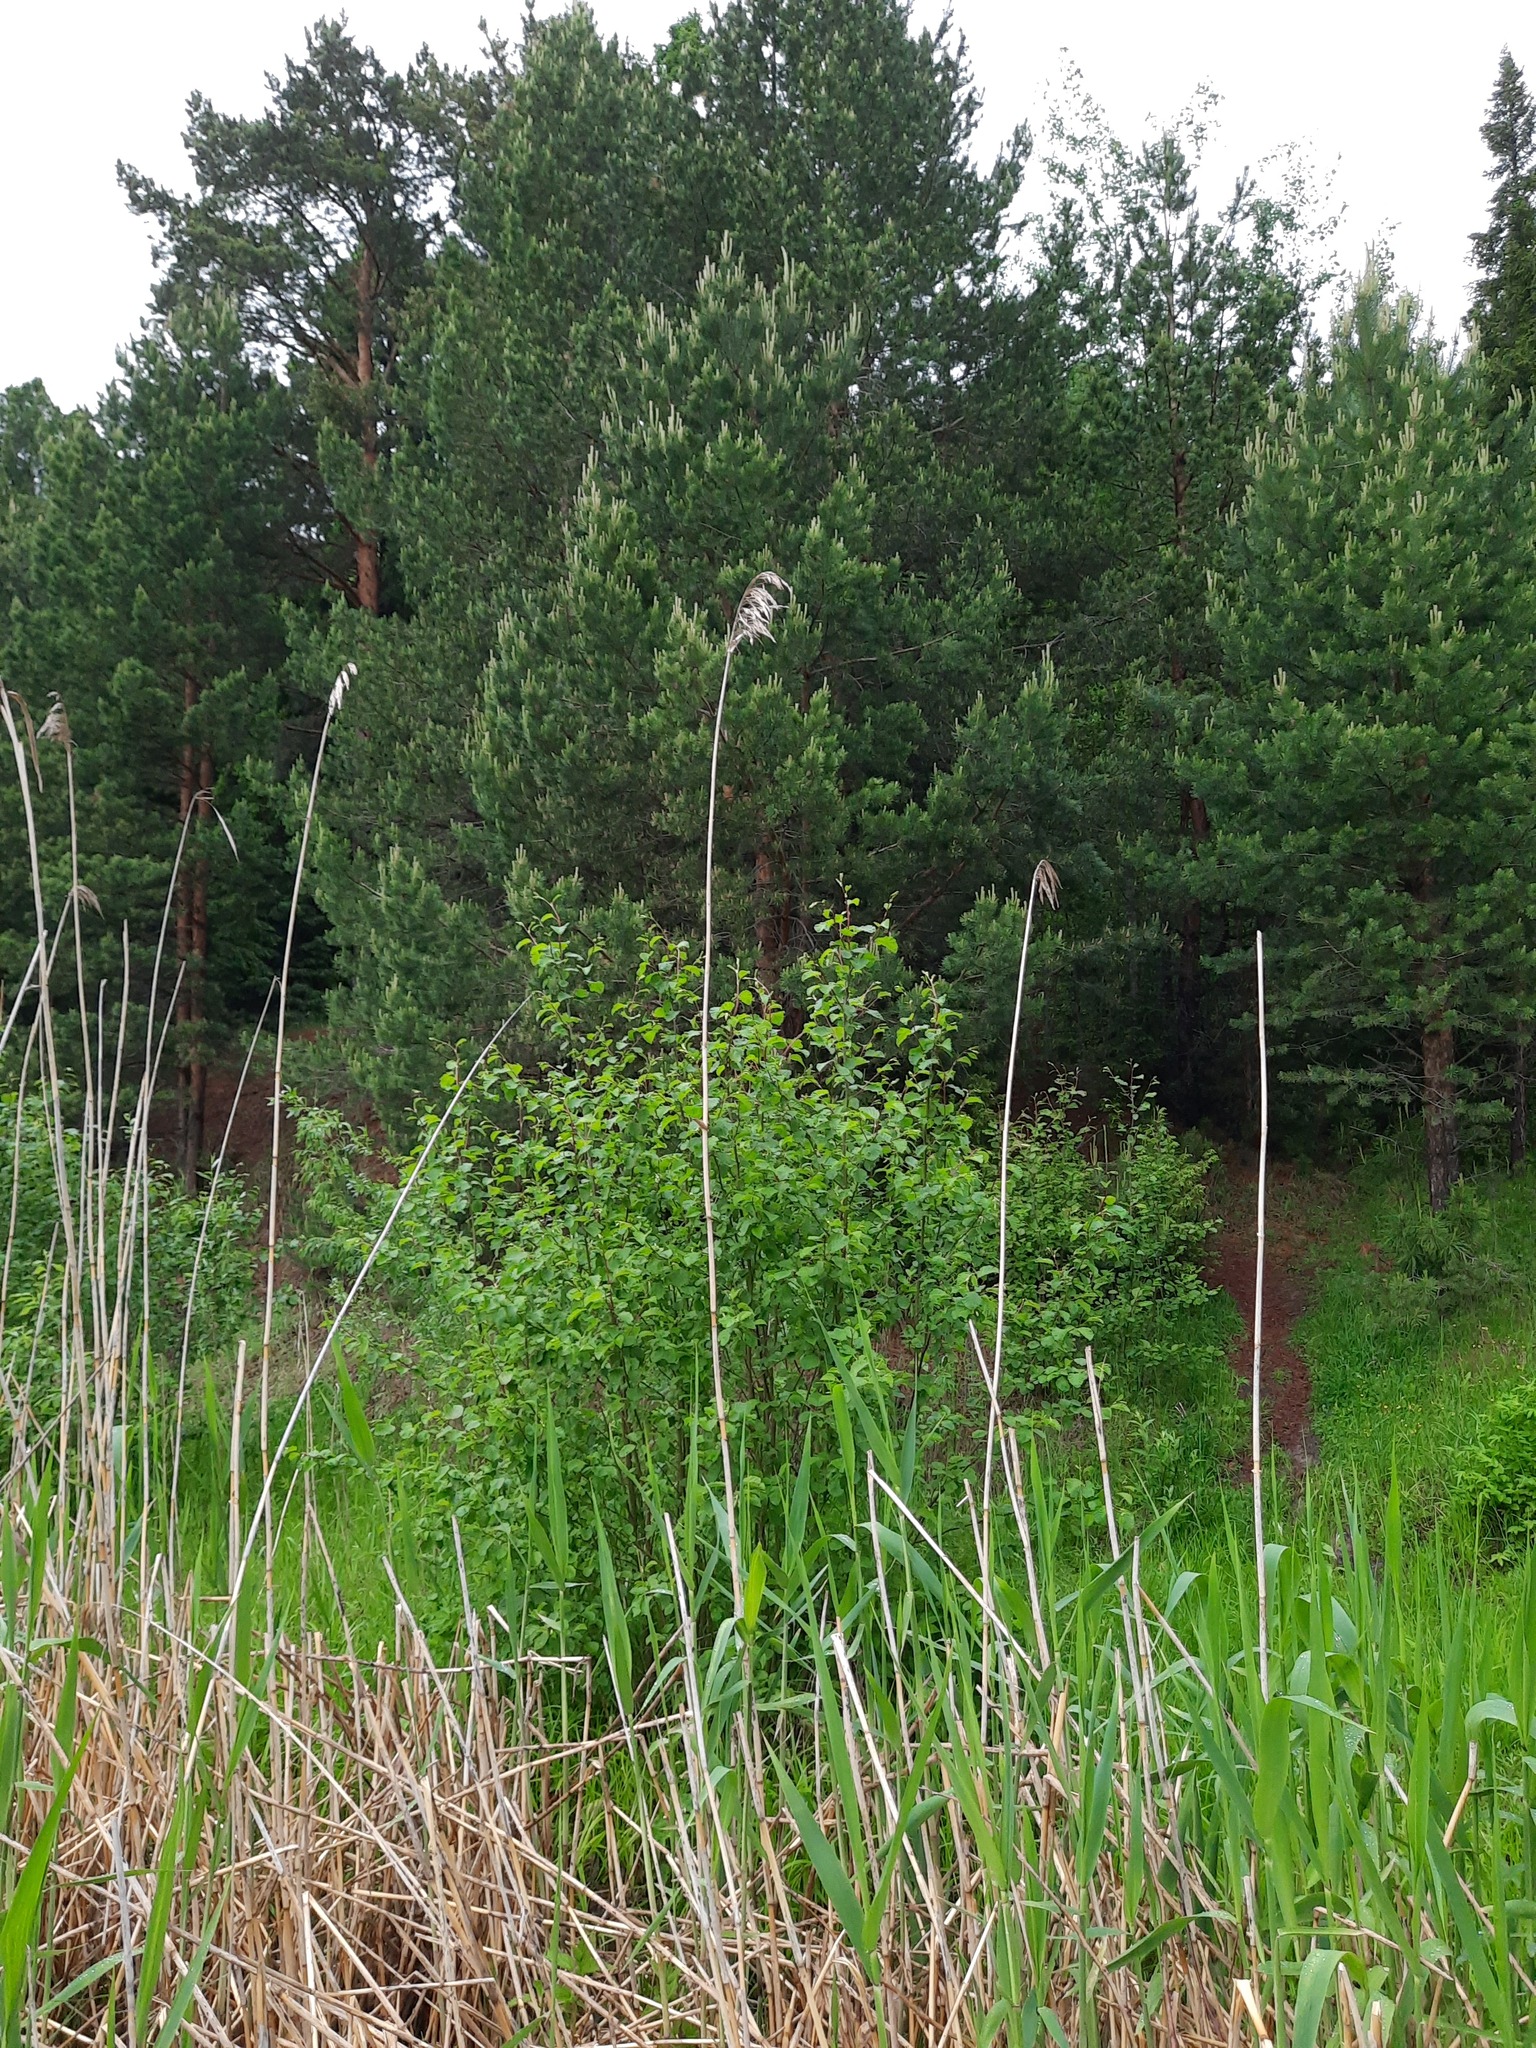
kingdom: Plantae
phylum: Tracheophyta
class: Liliopsida
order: Poales
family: Poaceae
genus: Phragmites
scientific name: Phragmites australis
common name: Common reed
